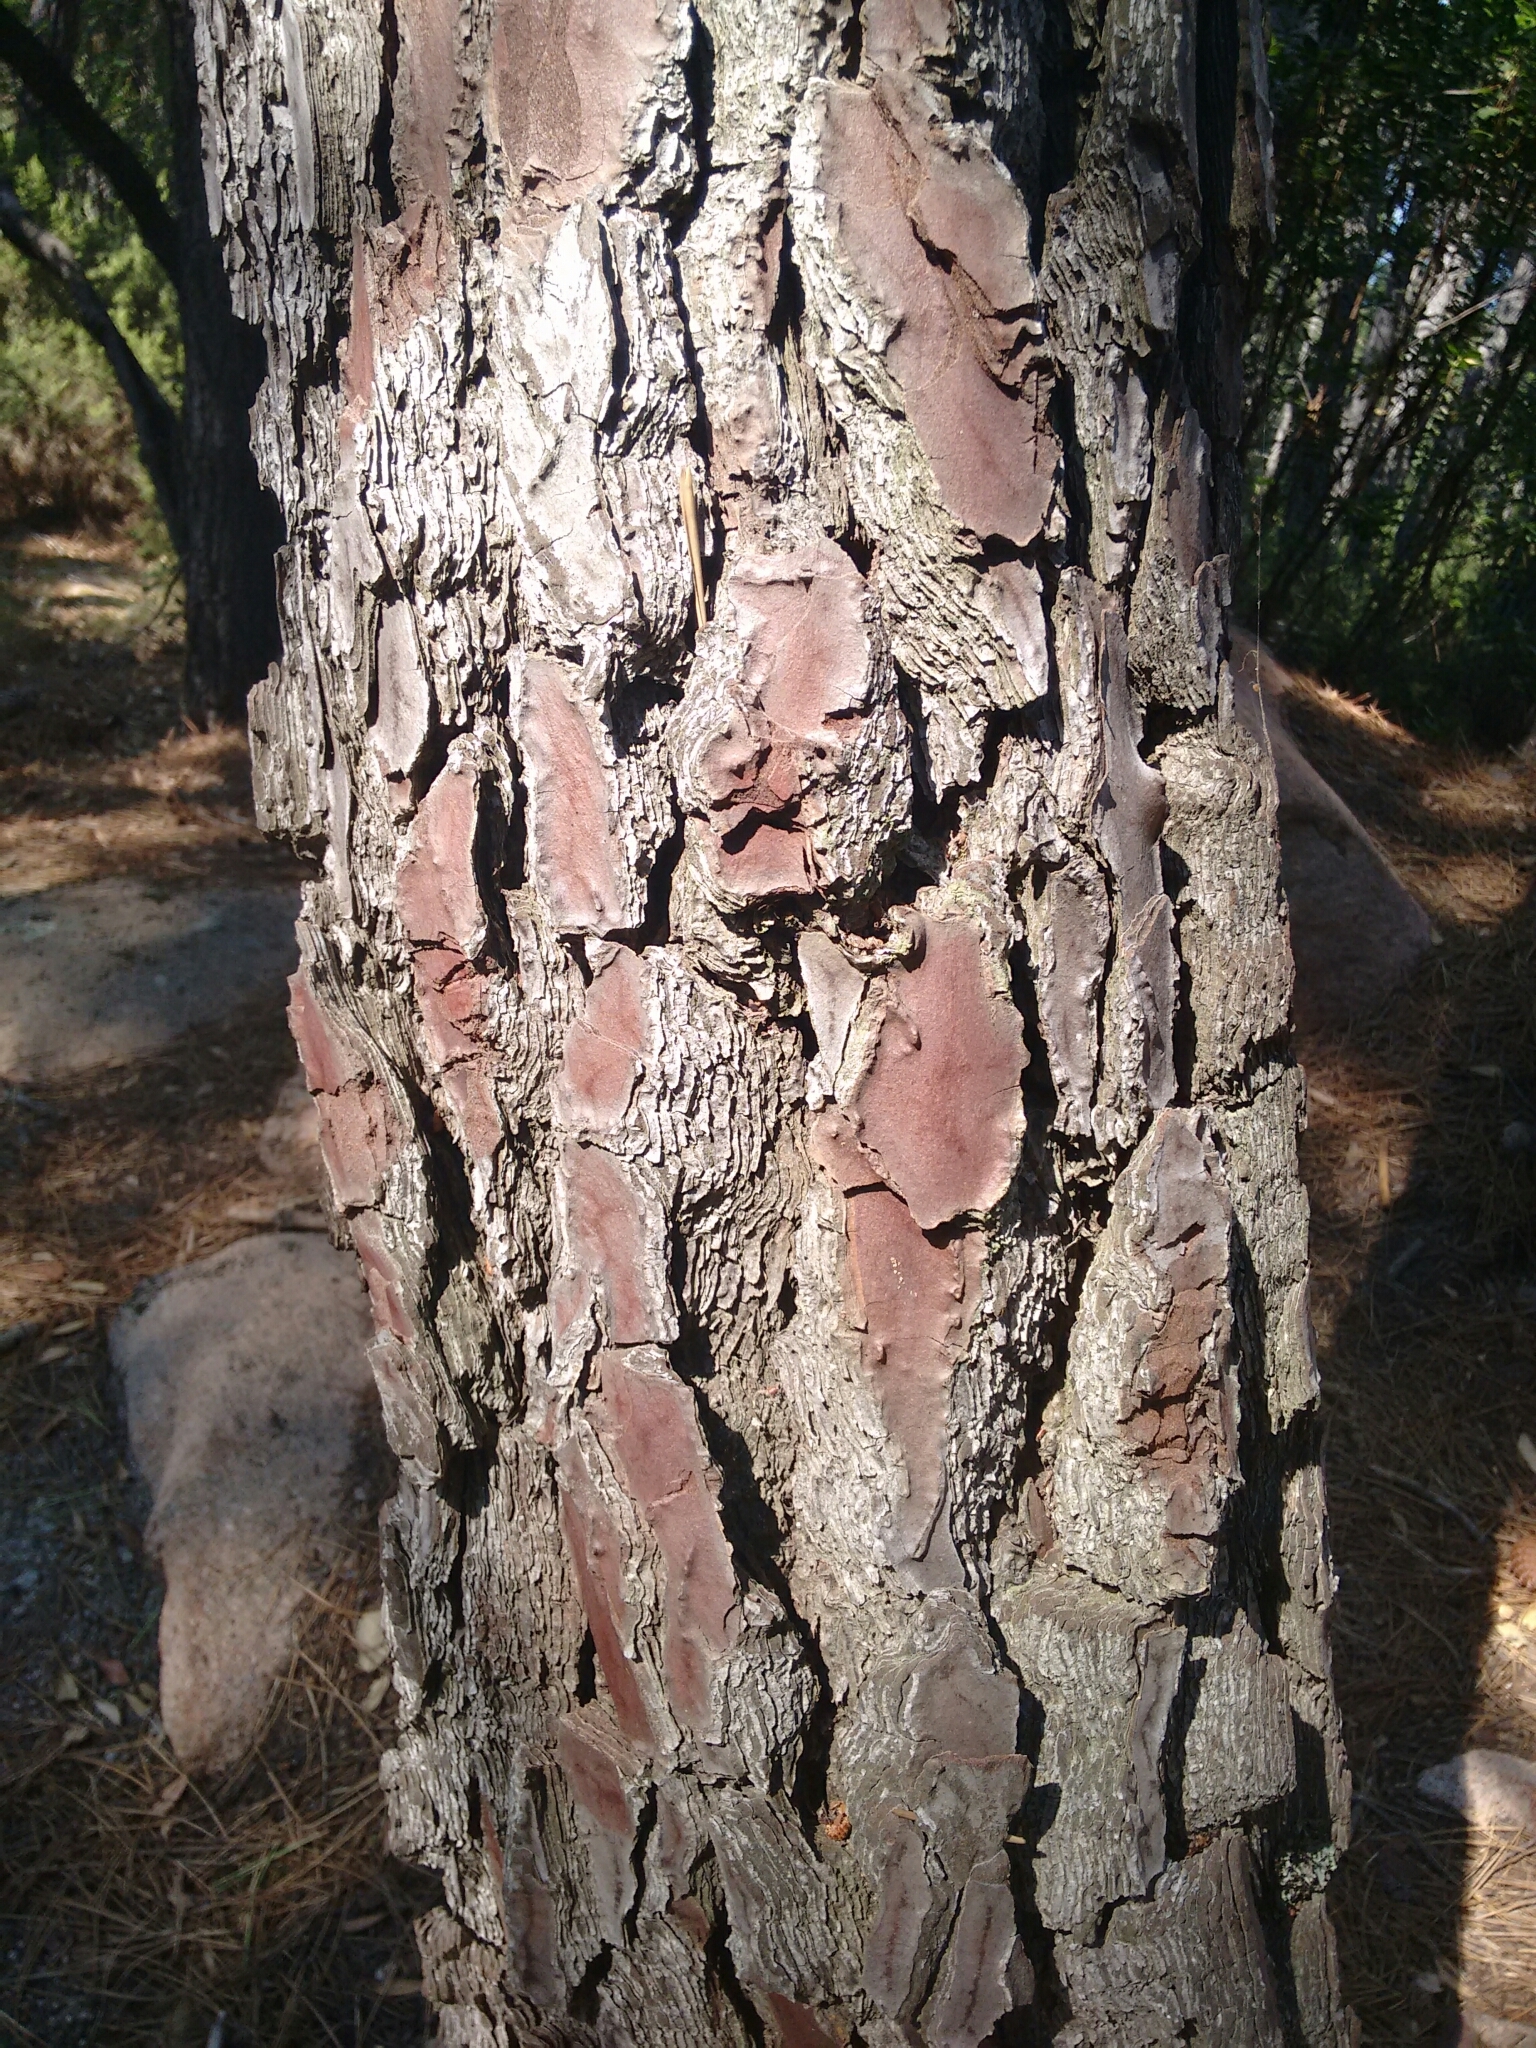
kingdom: Plantae
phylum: Tracheophyta
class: Pinopsida
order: Pinales
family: Pinaceae
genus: Pinus
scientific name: Pinus pinaster
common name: Maritime pine
